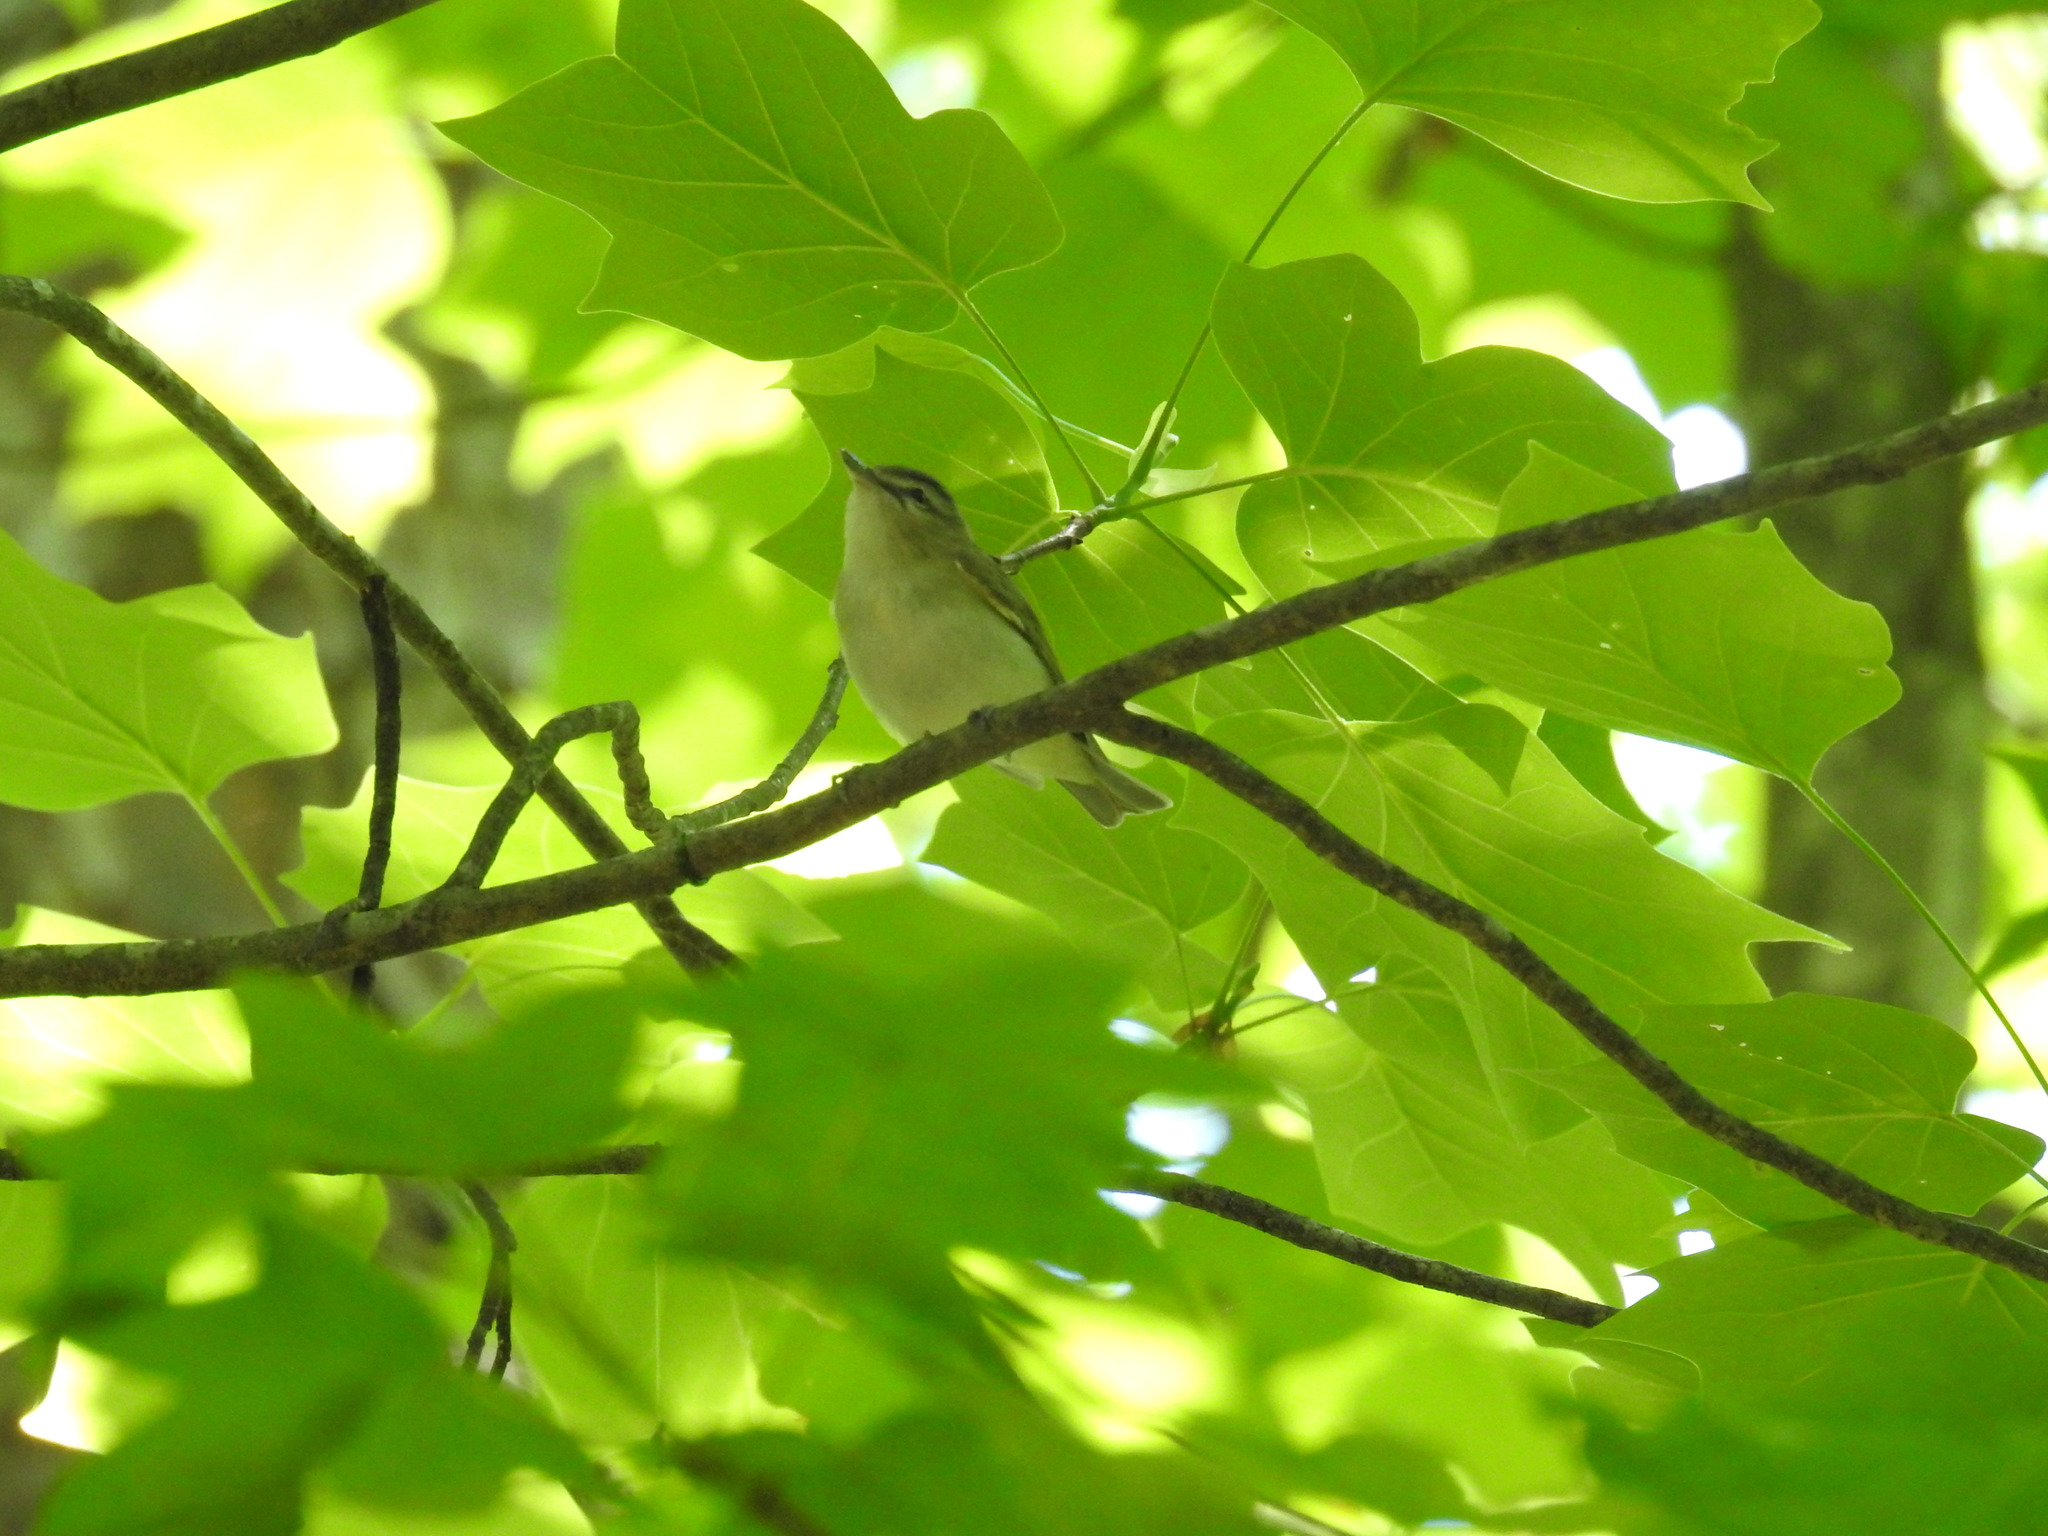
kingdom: Animalia
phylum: Chordata
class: Aves
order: Passeriformes
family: Vireonidae
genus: Vireo
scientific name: Vireo olivaceus
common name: Red-eyed vireo
